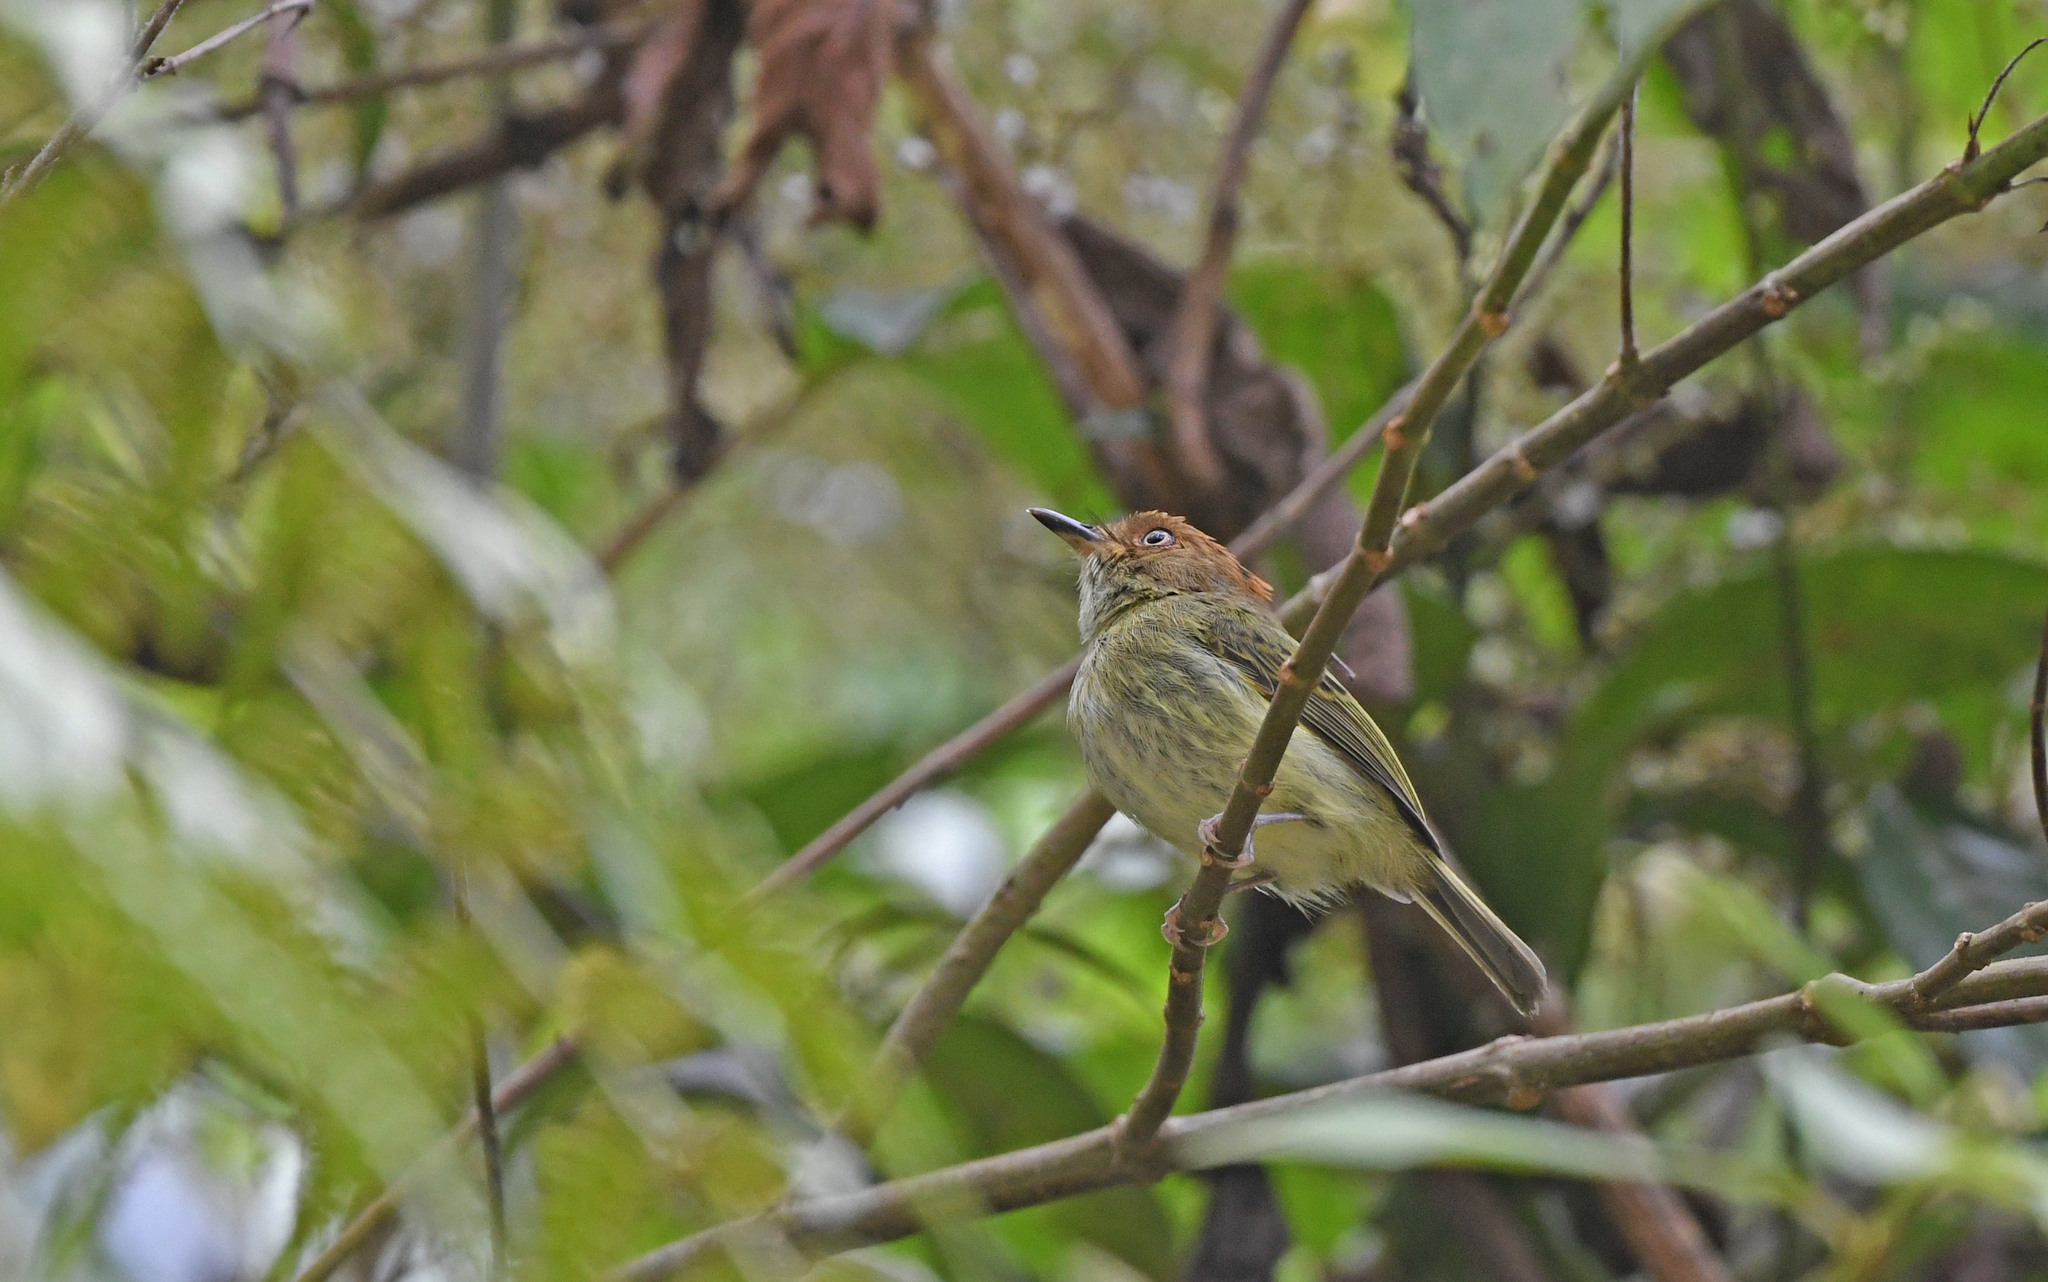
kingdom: Animalia
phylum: Chordata
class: Aves
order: Passeriformes
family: Tyrannidae
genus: Lophotriccus
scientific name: Lophotriccus pileatus
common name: Scale-crested pygmy-tyrant
